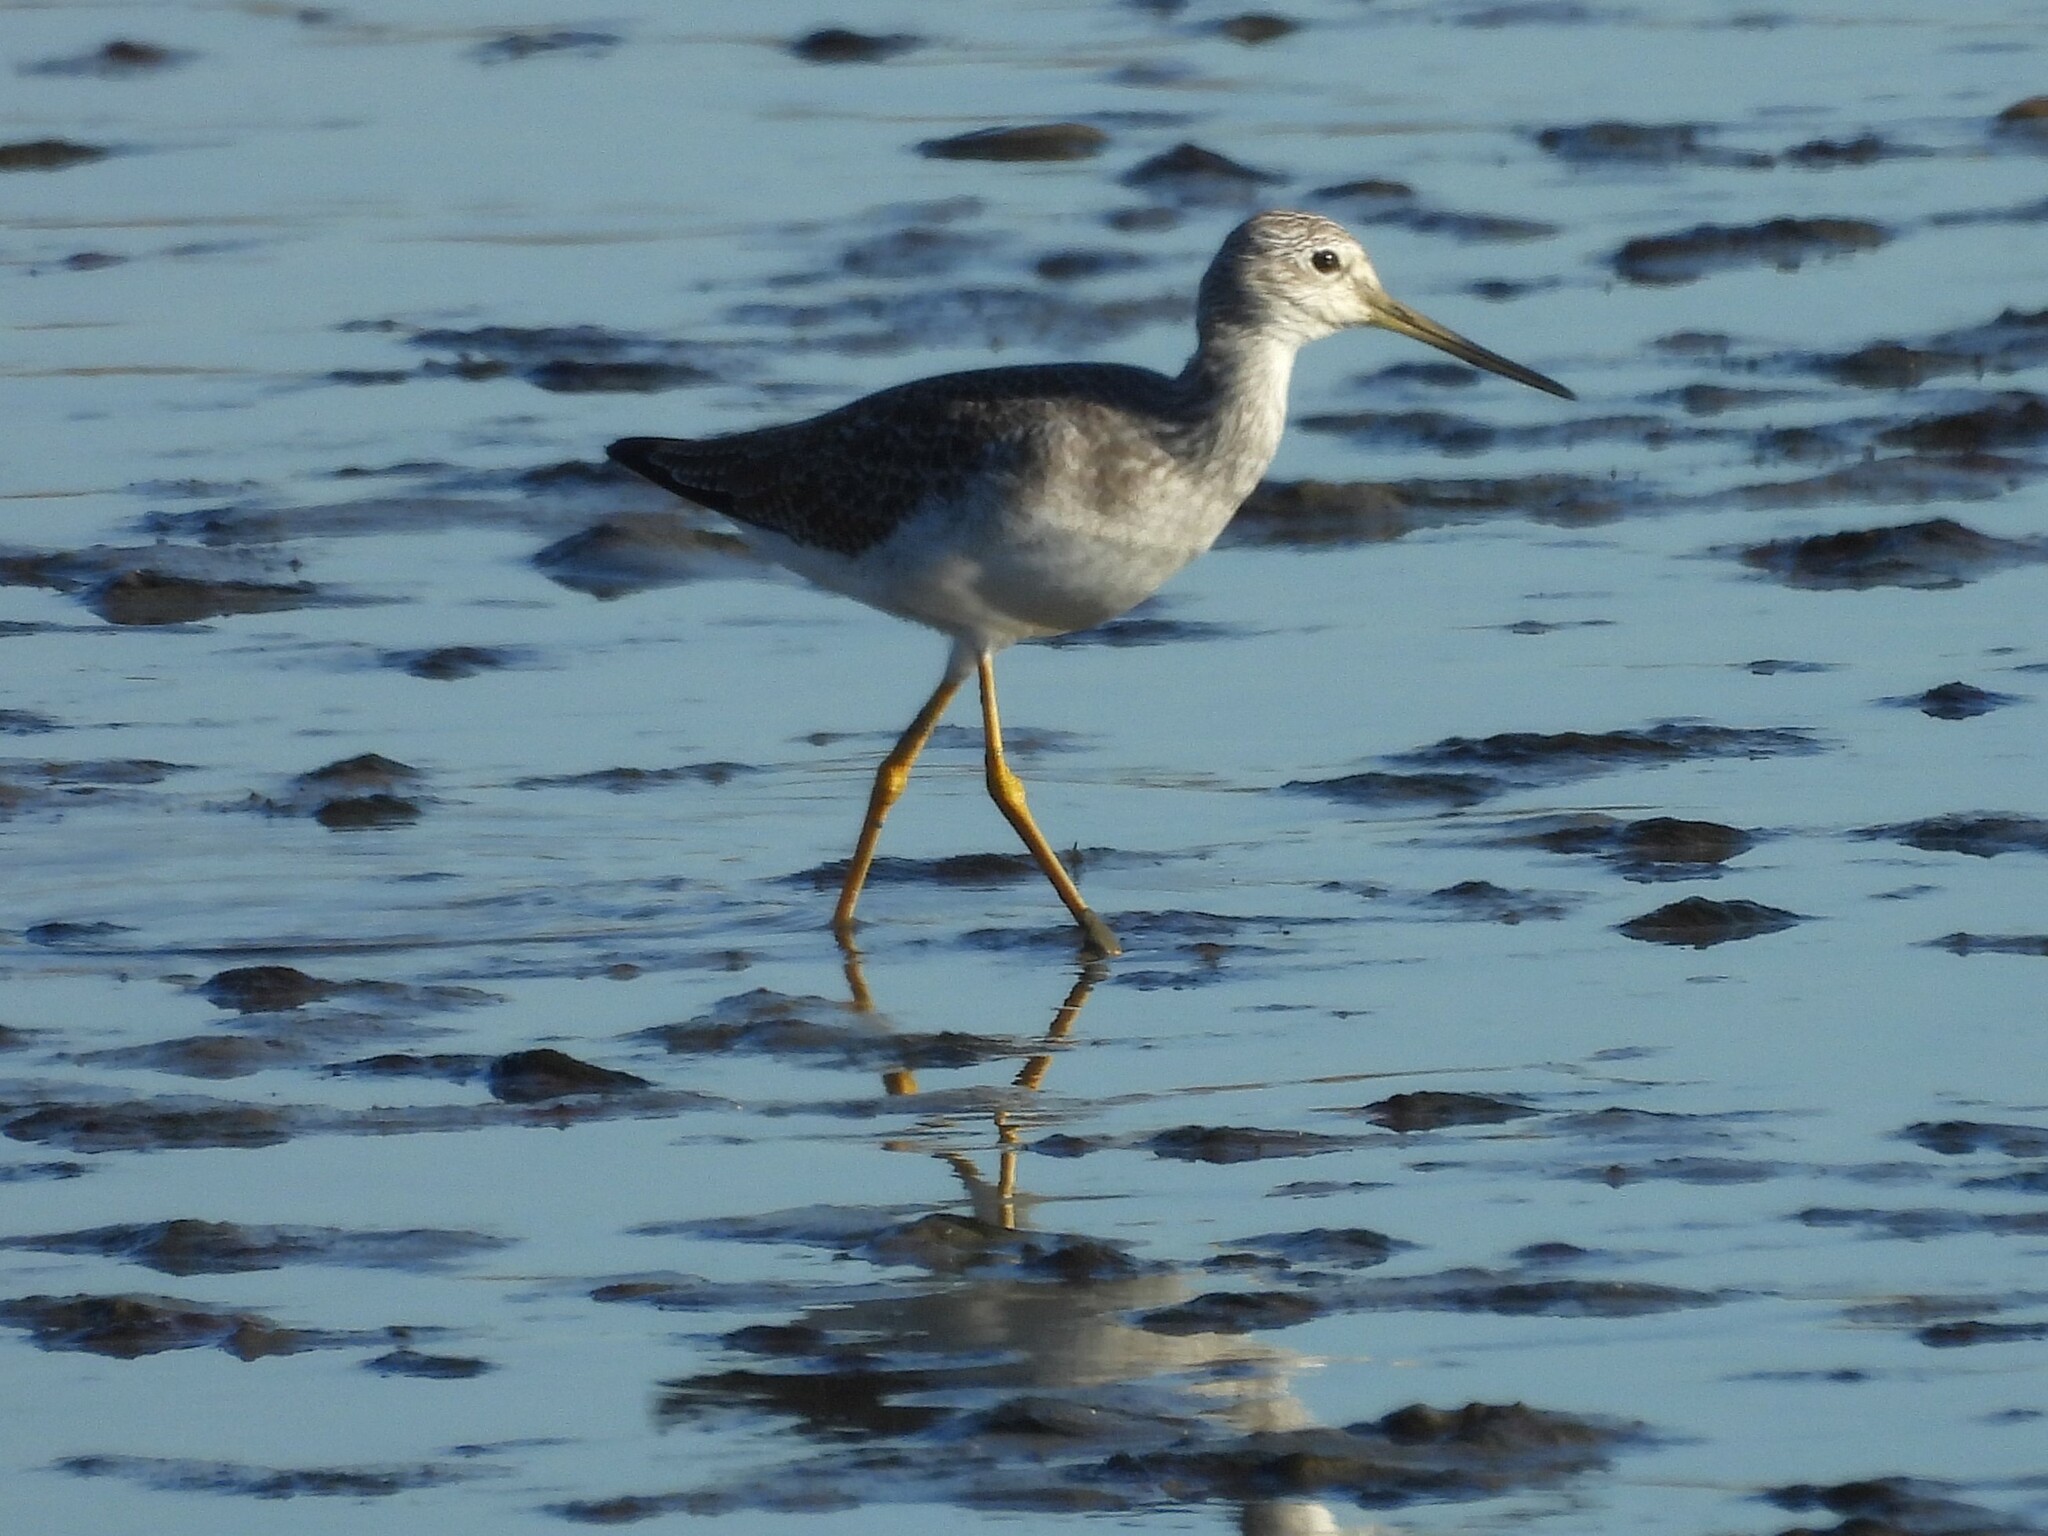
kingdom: Animalia
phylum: Chordata
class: Aves
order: Charadriiformes
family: Scolopacidae
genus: Tringa
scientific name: Tringa melanoleuca
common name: Greater yellowlegs
